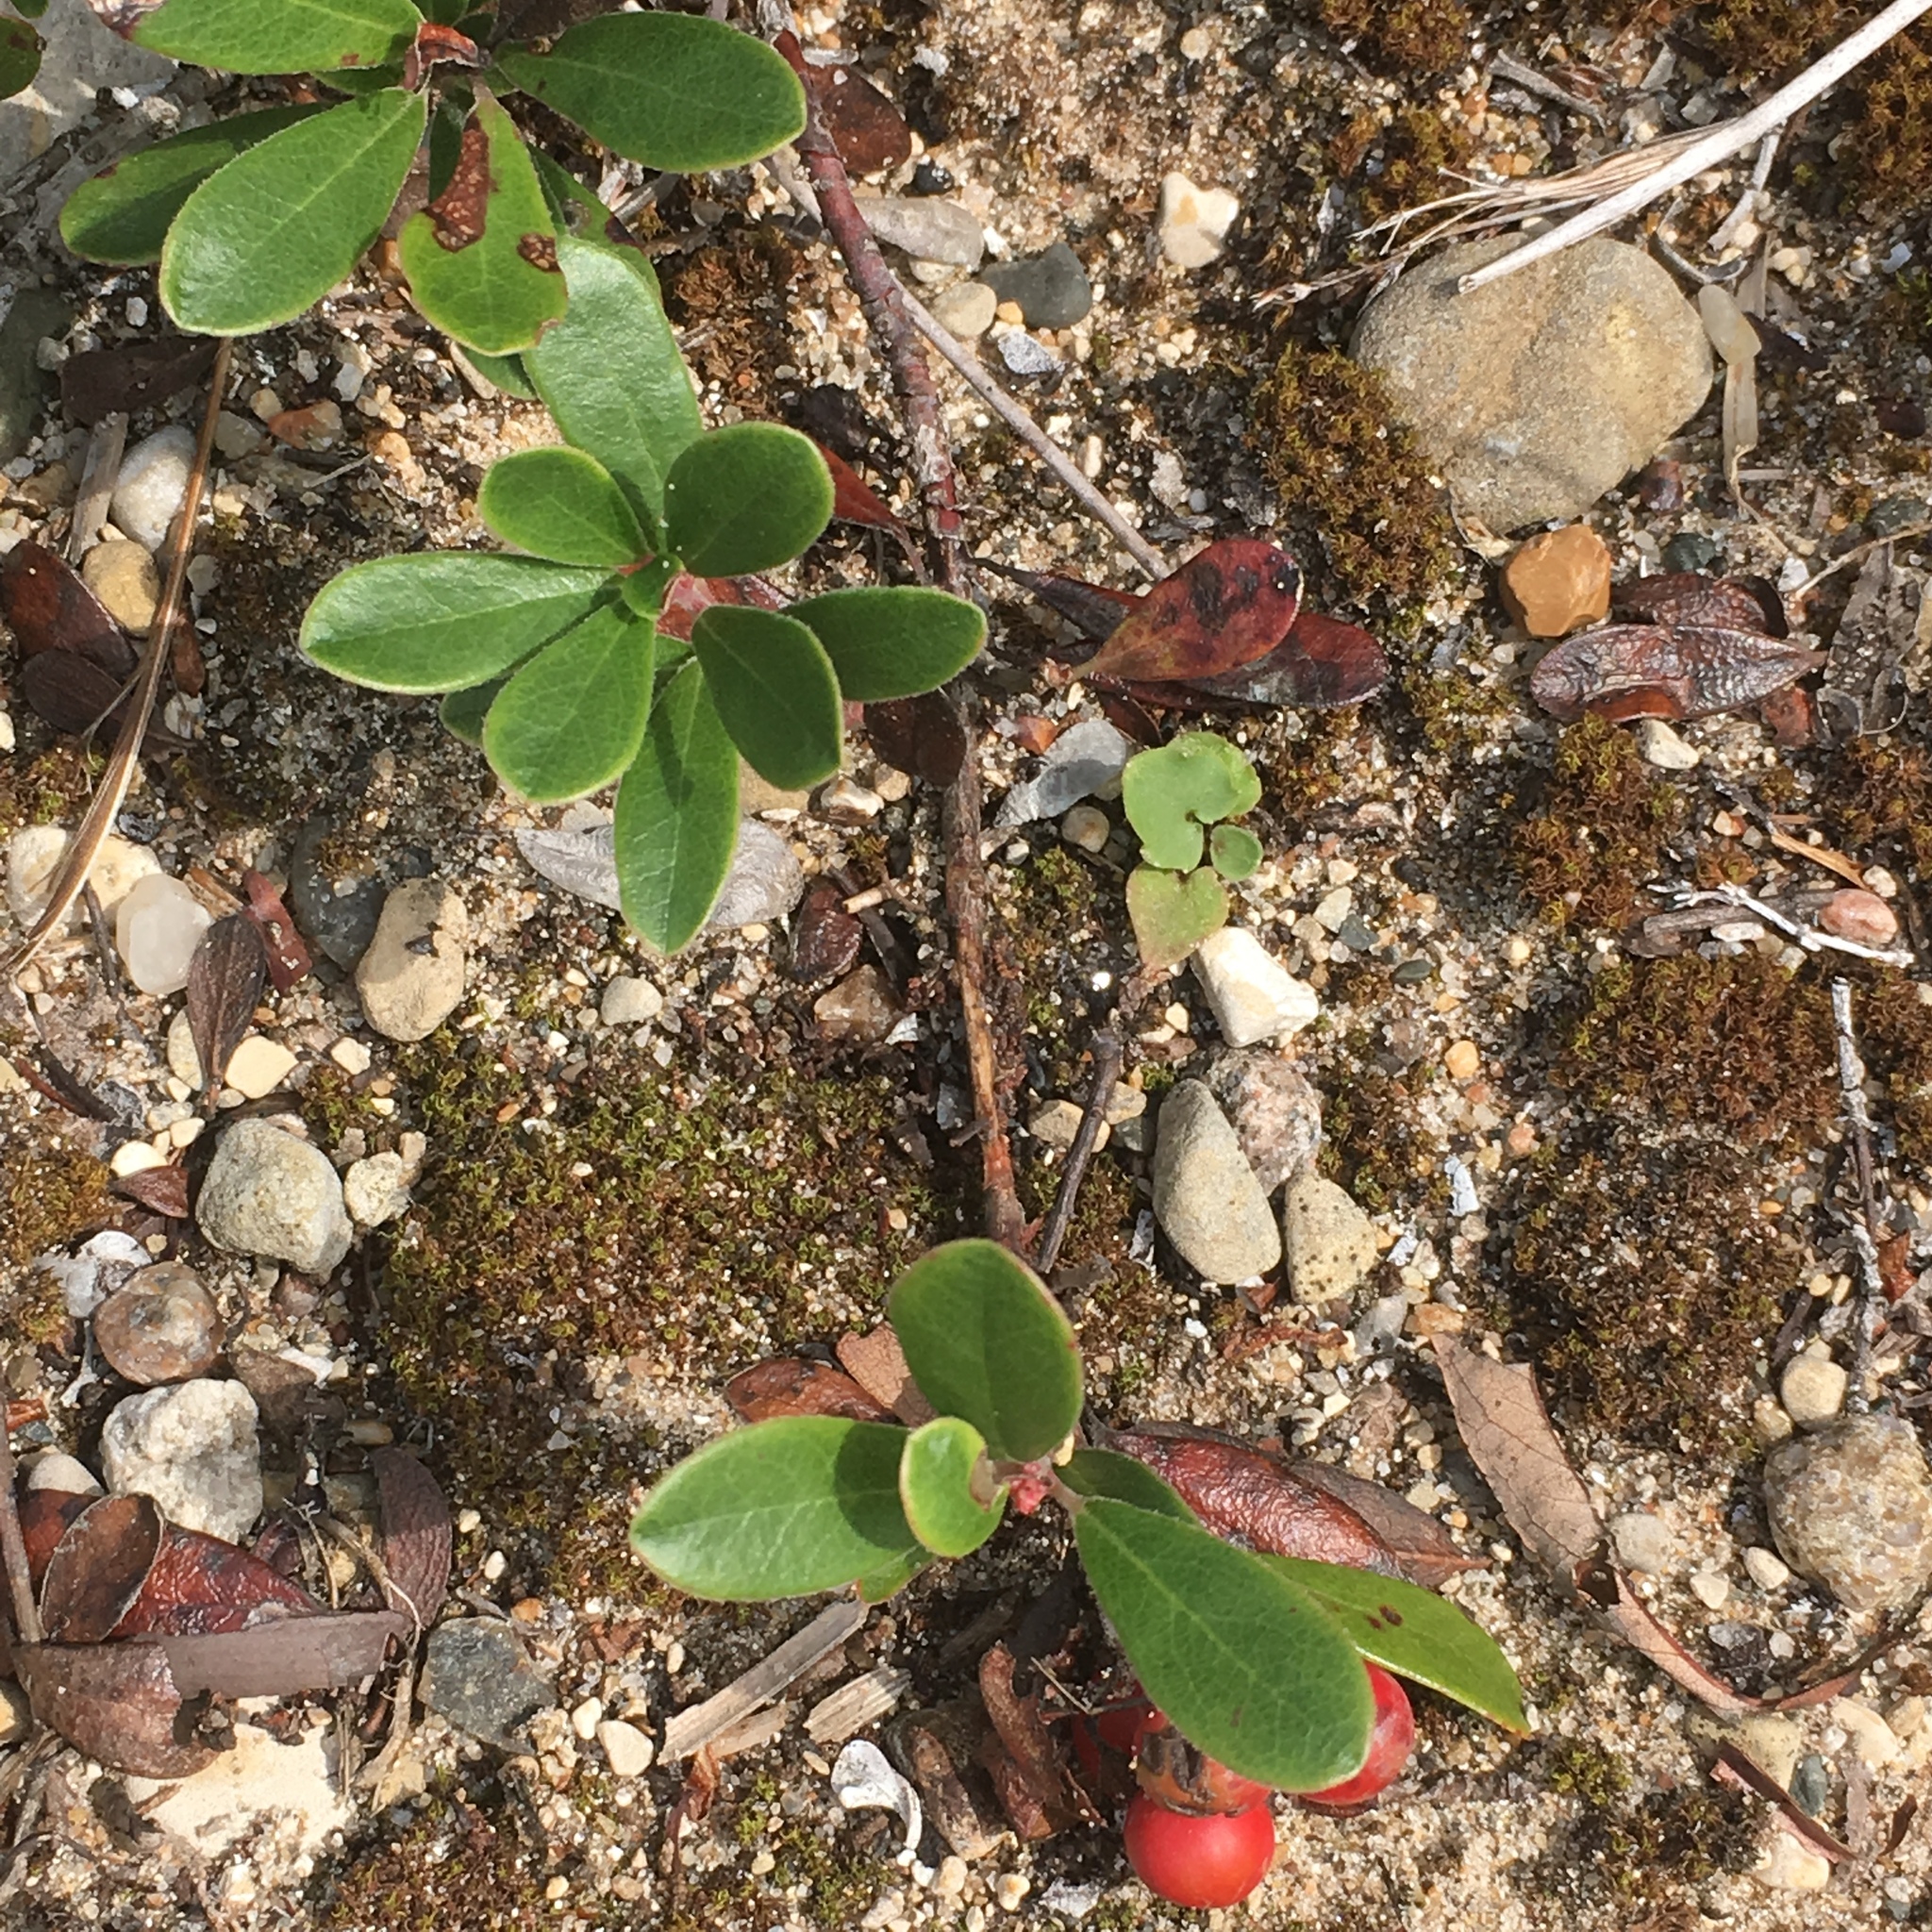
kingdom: Plantae
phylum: Tracheophyta
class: Magnoliopsida
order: Ericales
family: Ericaceae
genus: Arctostaphylos
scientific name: Arctostaphylos uva-ursi
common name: Bearberry
